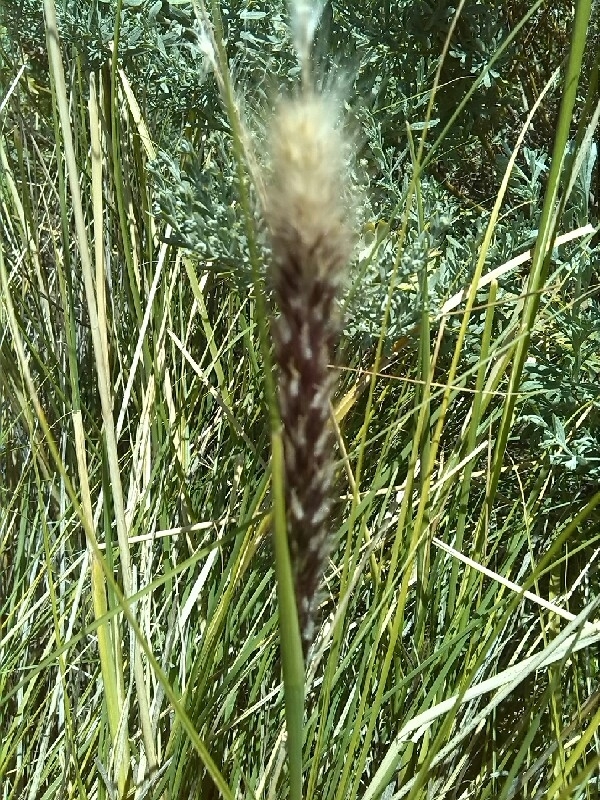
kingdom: Plantae
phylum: Tracheophyta
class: Liliopsida
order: Poales
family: Poaceae
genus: Cenchrus
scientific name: Cenchrus setaceus
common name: Crimson fountaingrass
